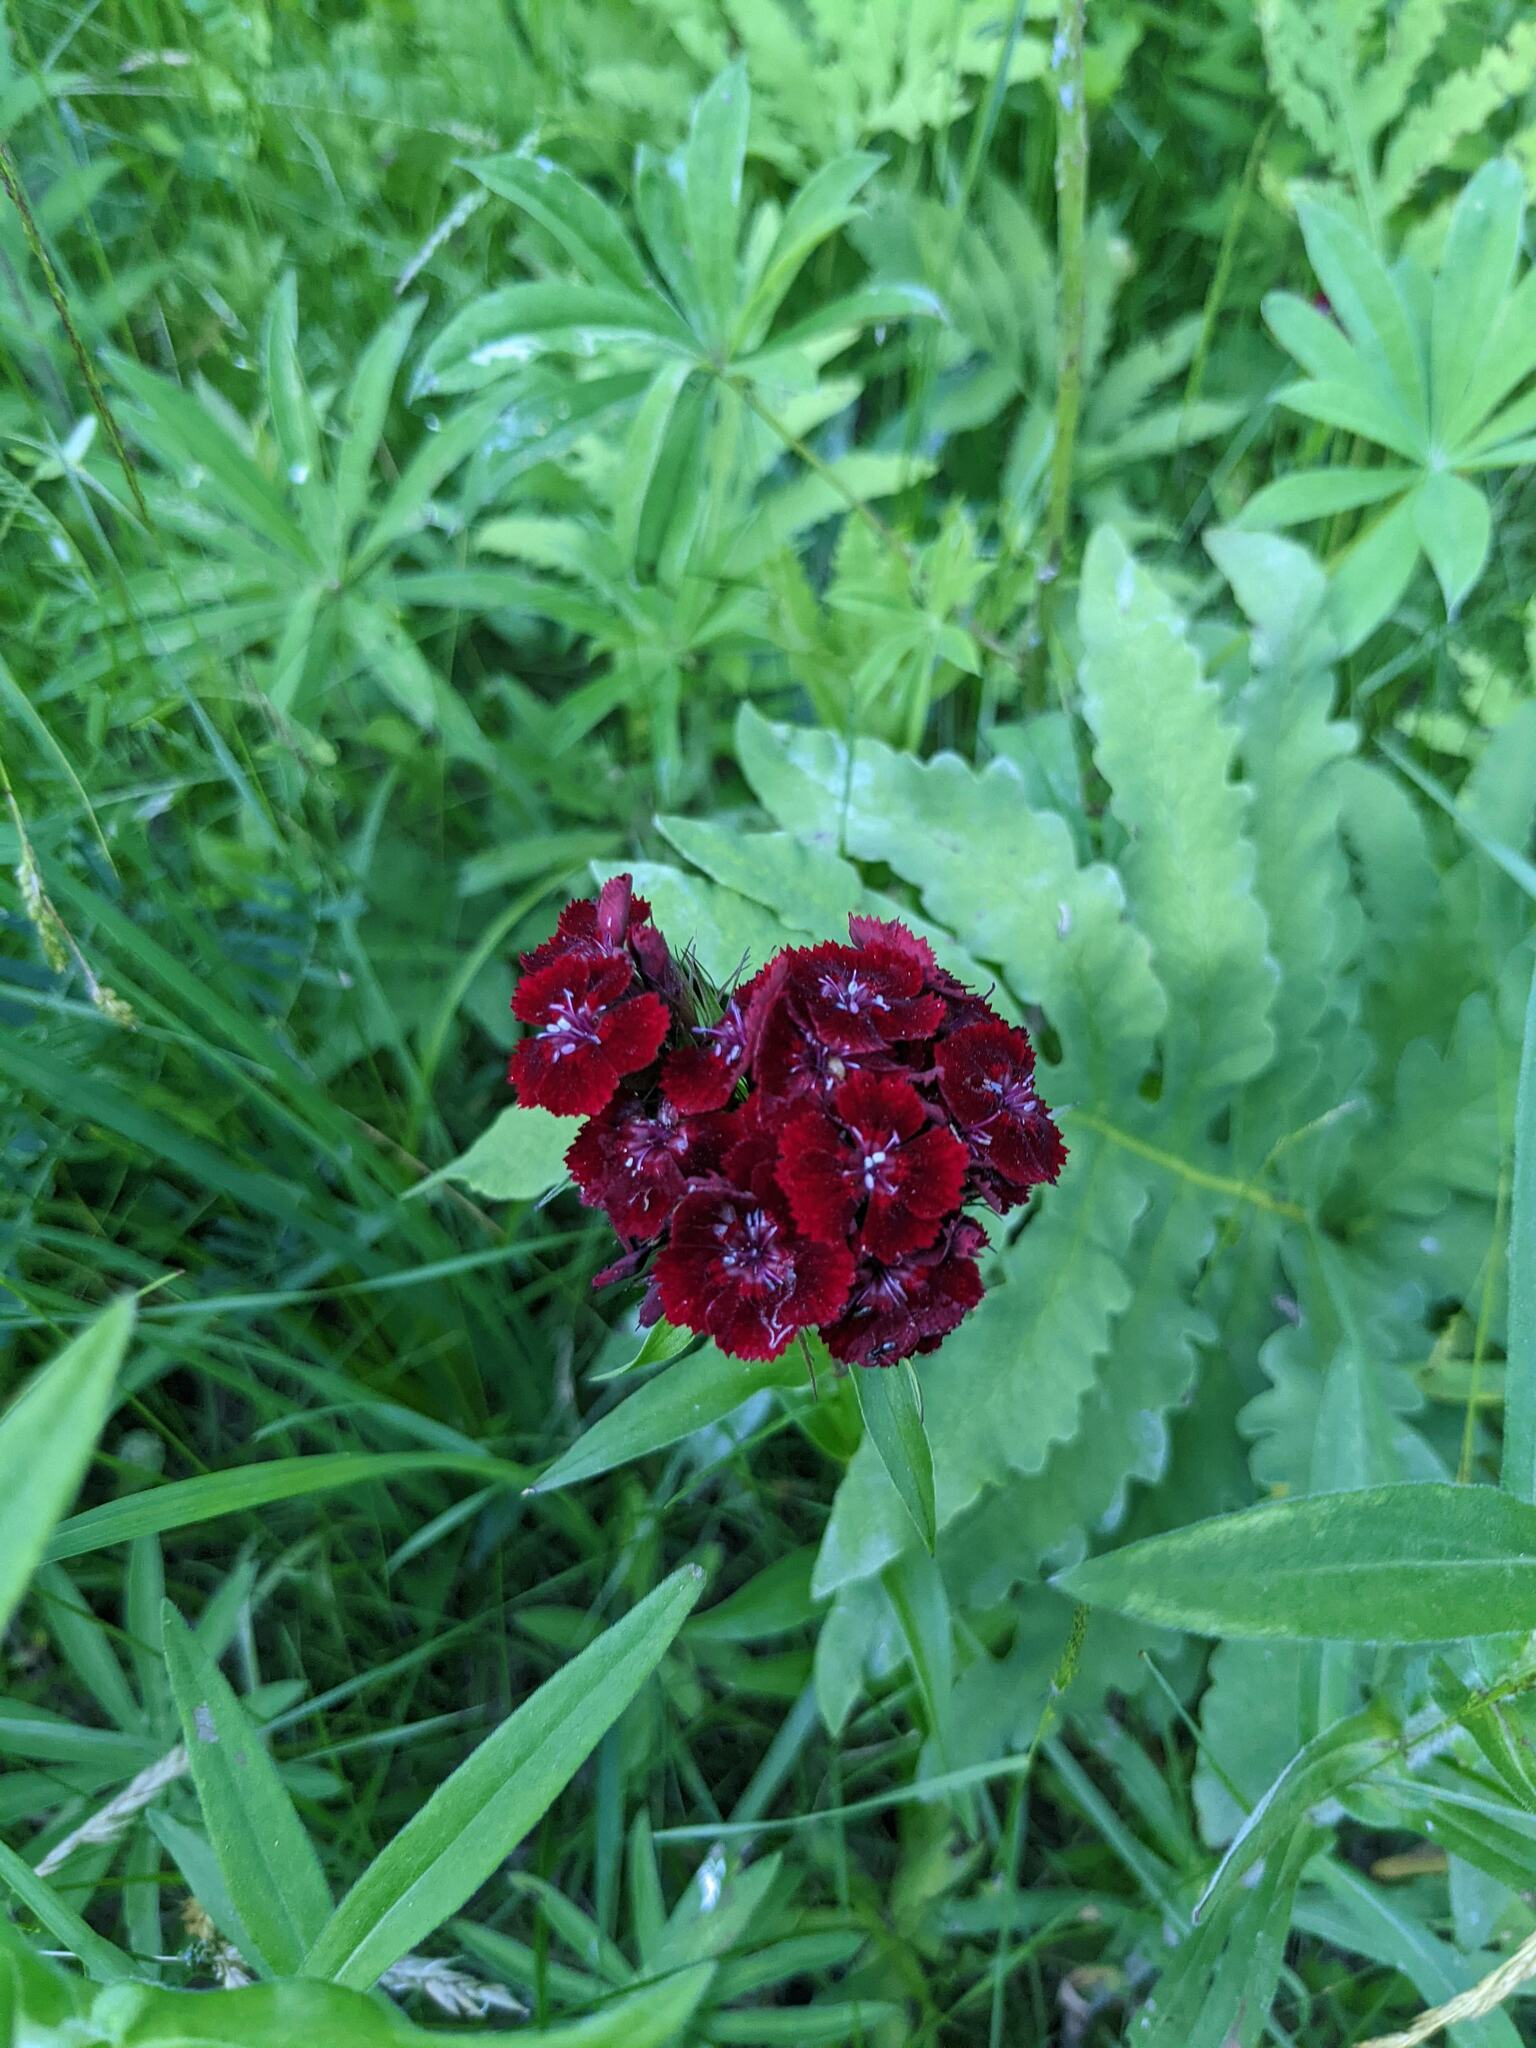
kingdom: Plantae
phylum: Tracheophyta
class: Magnoliopsida
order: Caryophyllales
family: Caryophyllaceae
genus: Dianthus
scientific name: Dianthus barbatus
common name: Sweet-william
